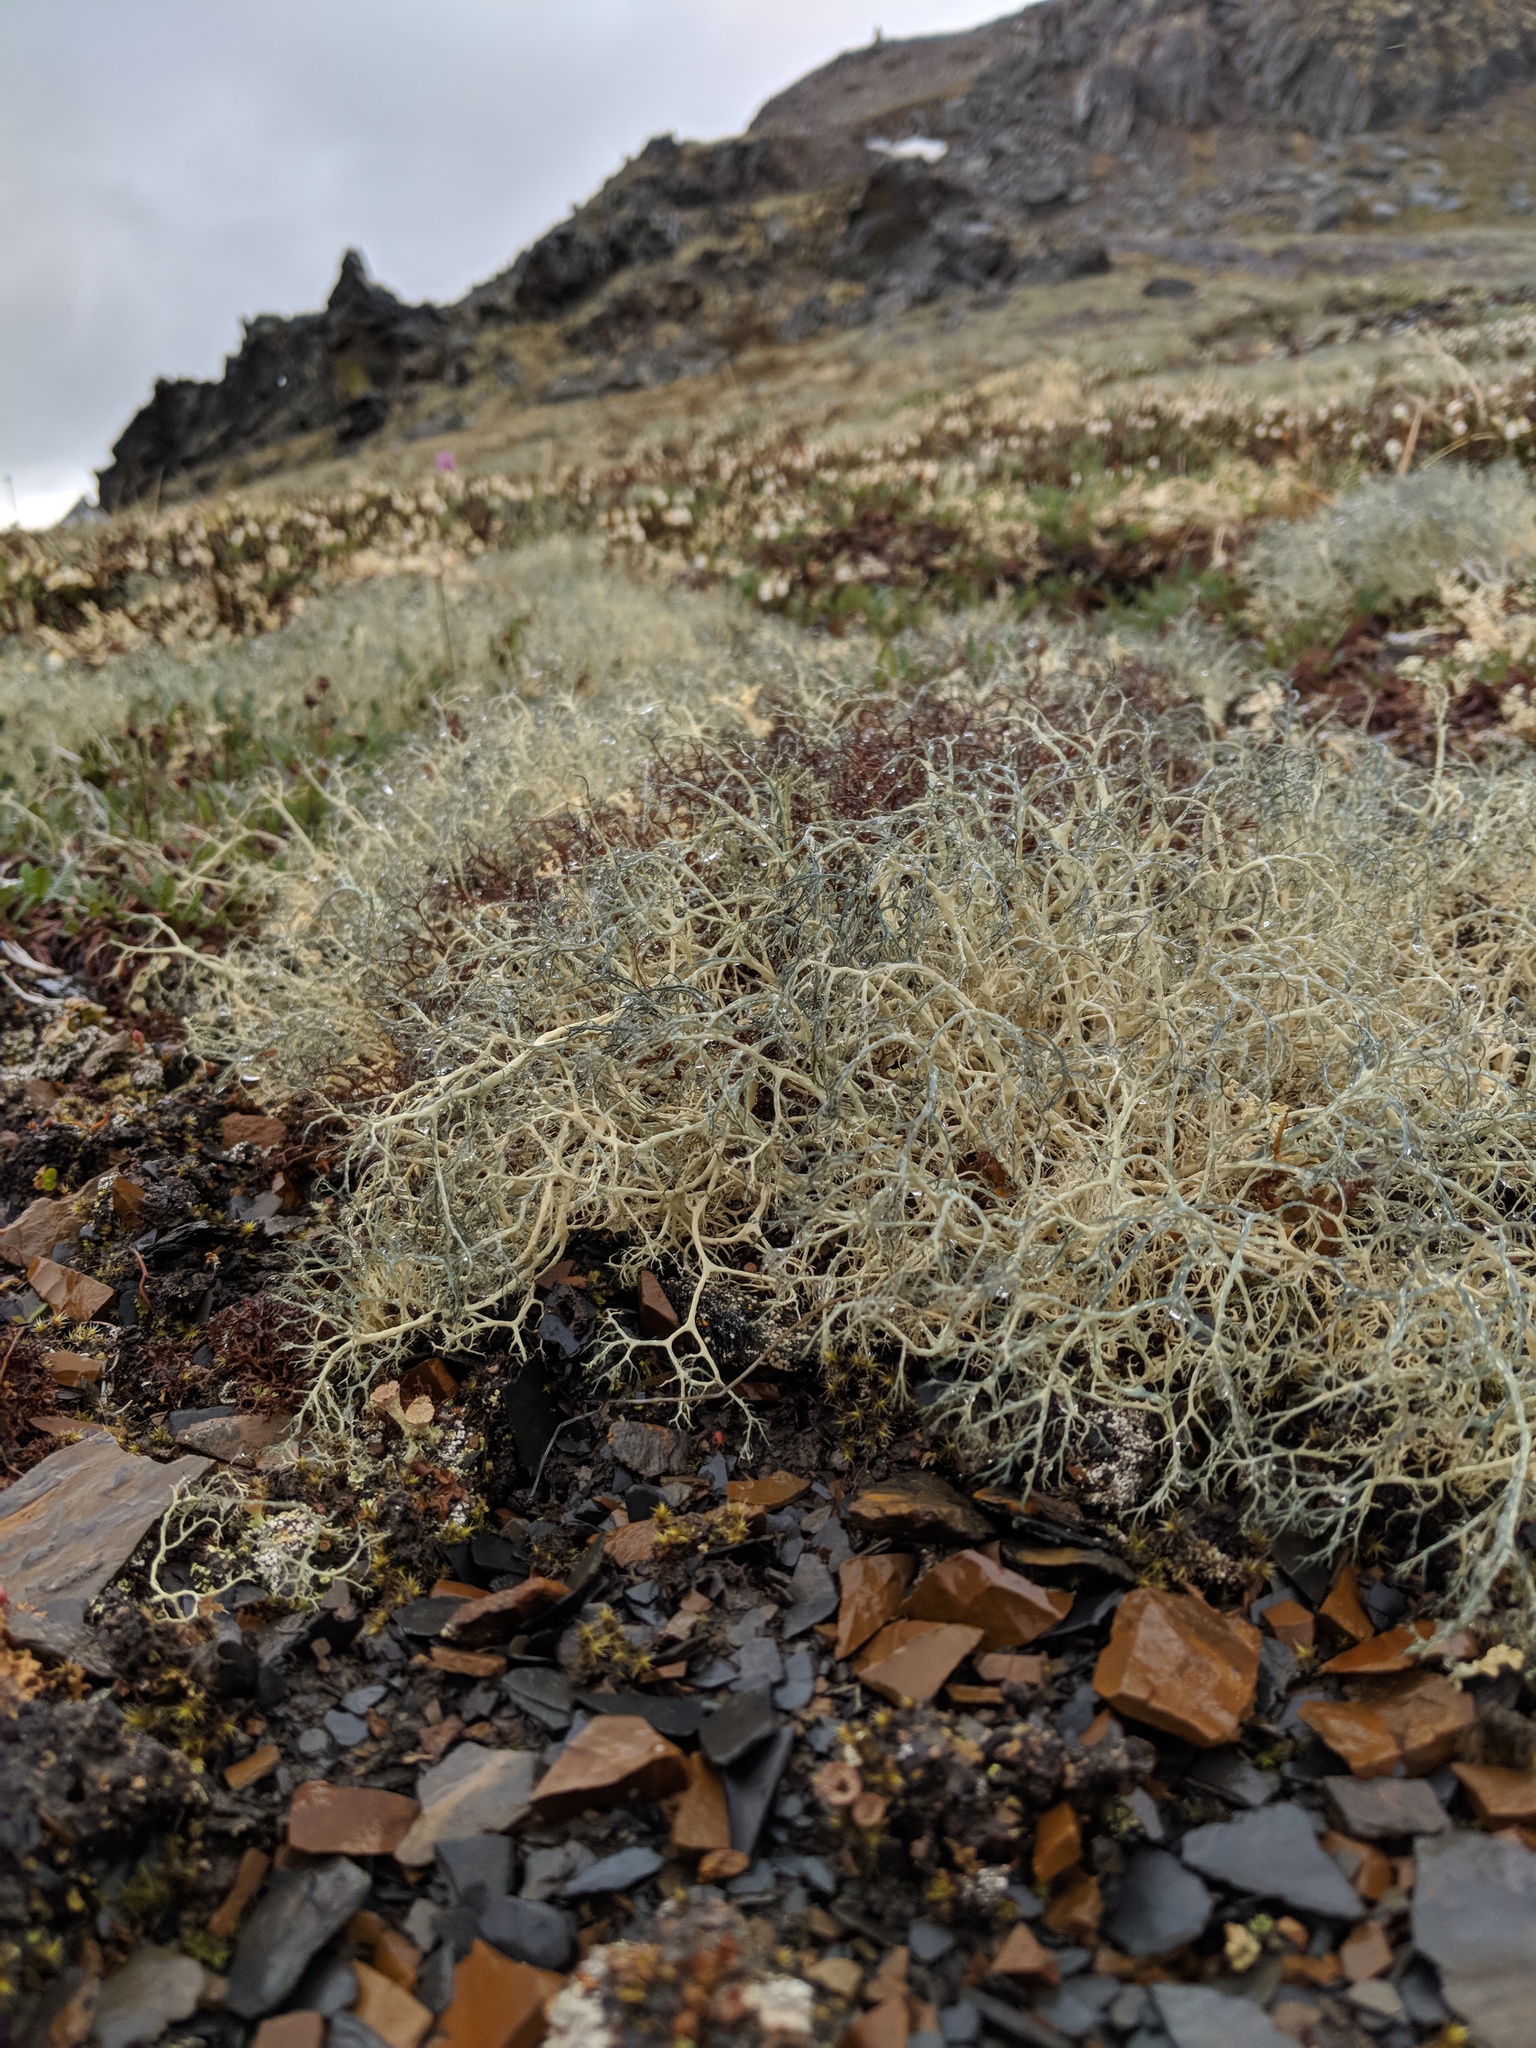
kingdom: Fungi
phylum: Ascomycota
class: Lecanoromycetes
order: Lecanorales
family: Parmeliaceae
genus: Alectoria
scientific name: Alectoria ochroleuca
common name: Alpine sulphur-tresses
